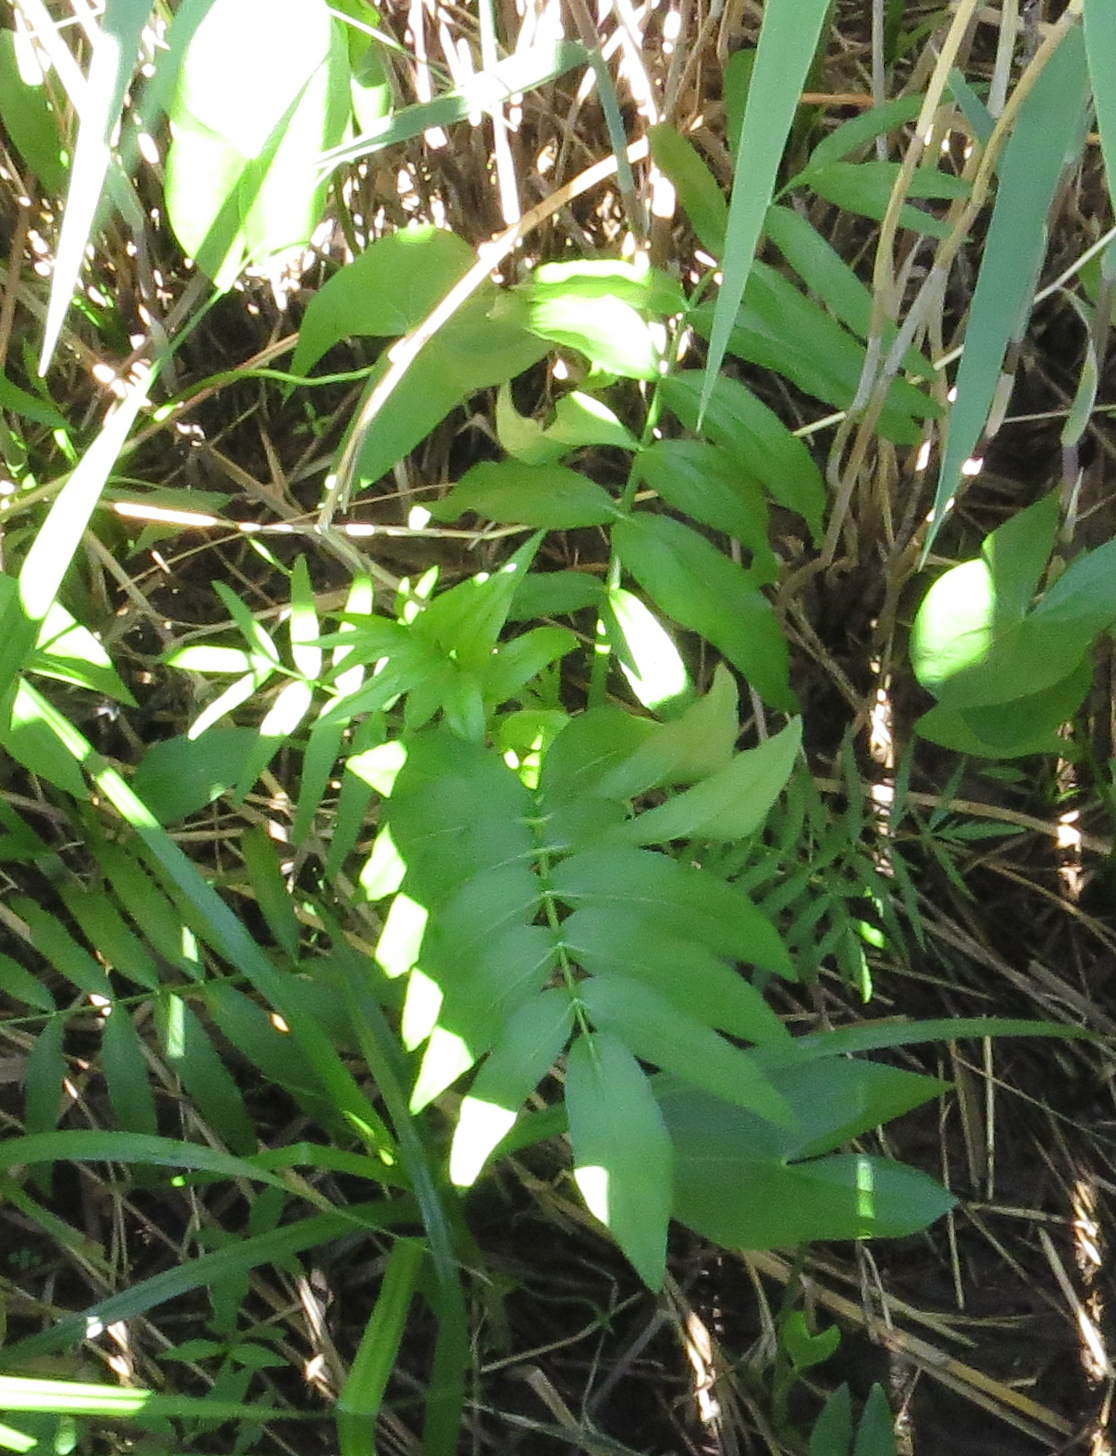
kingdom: Plantae
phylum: Tracheophyta
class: Magnoliopsida
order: Apiales
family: Apiaceae
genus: Sium
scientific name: Sium suave
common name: Hemlock water-parsnip
